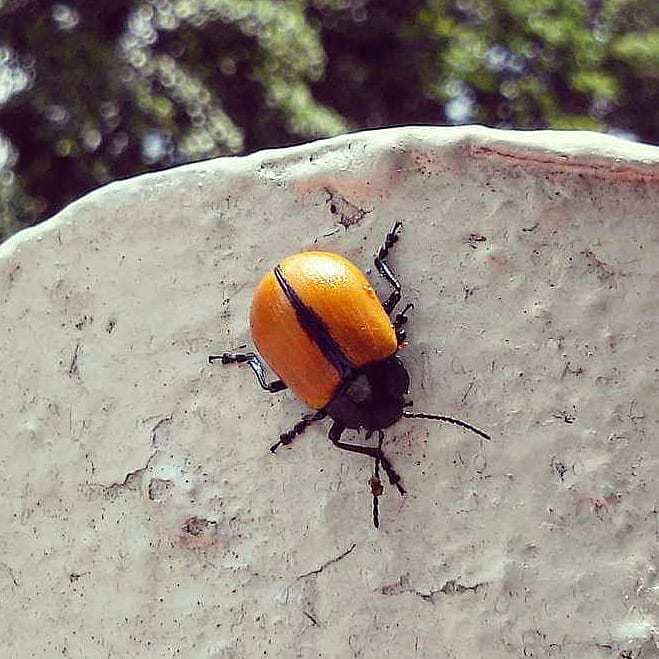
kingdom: Animalia
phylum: Arthropoda
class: Insecta
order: Coleoptera
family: Chrysomelidae
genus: Leptinotarsa
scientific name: Leptinotarsa
